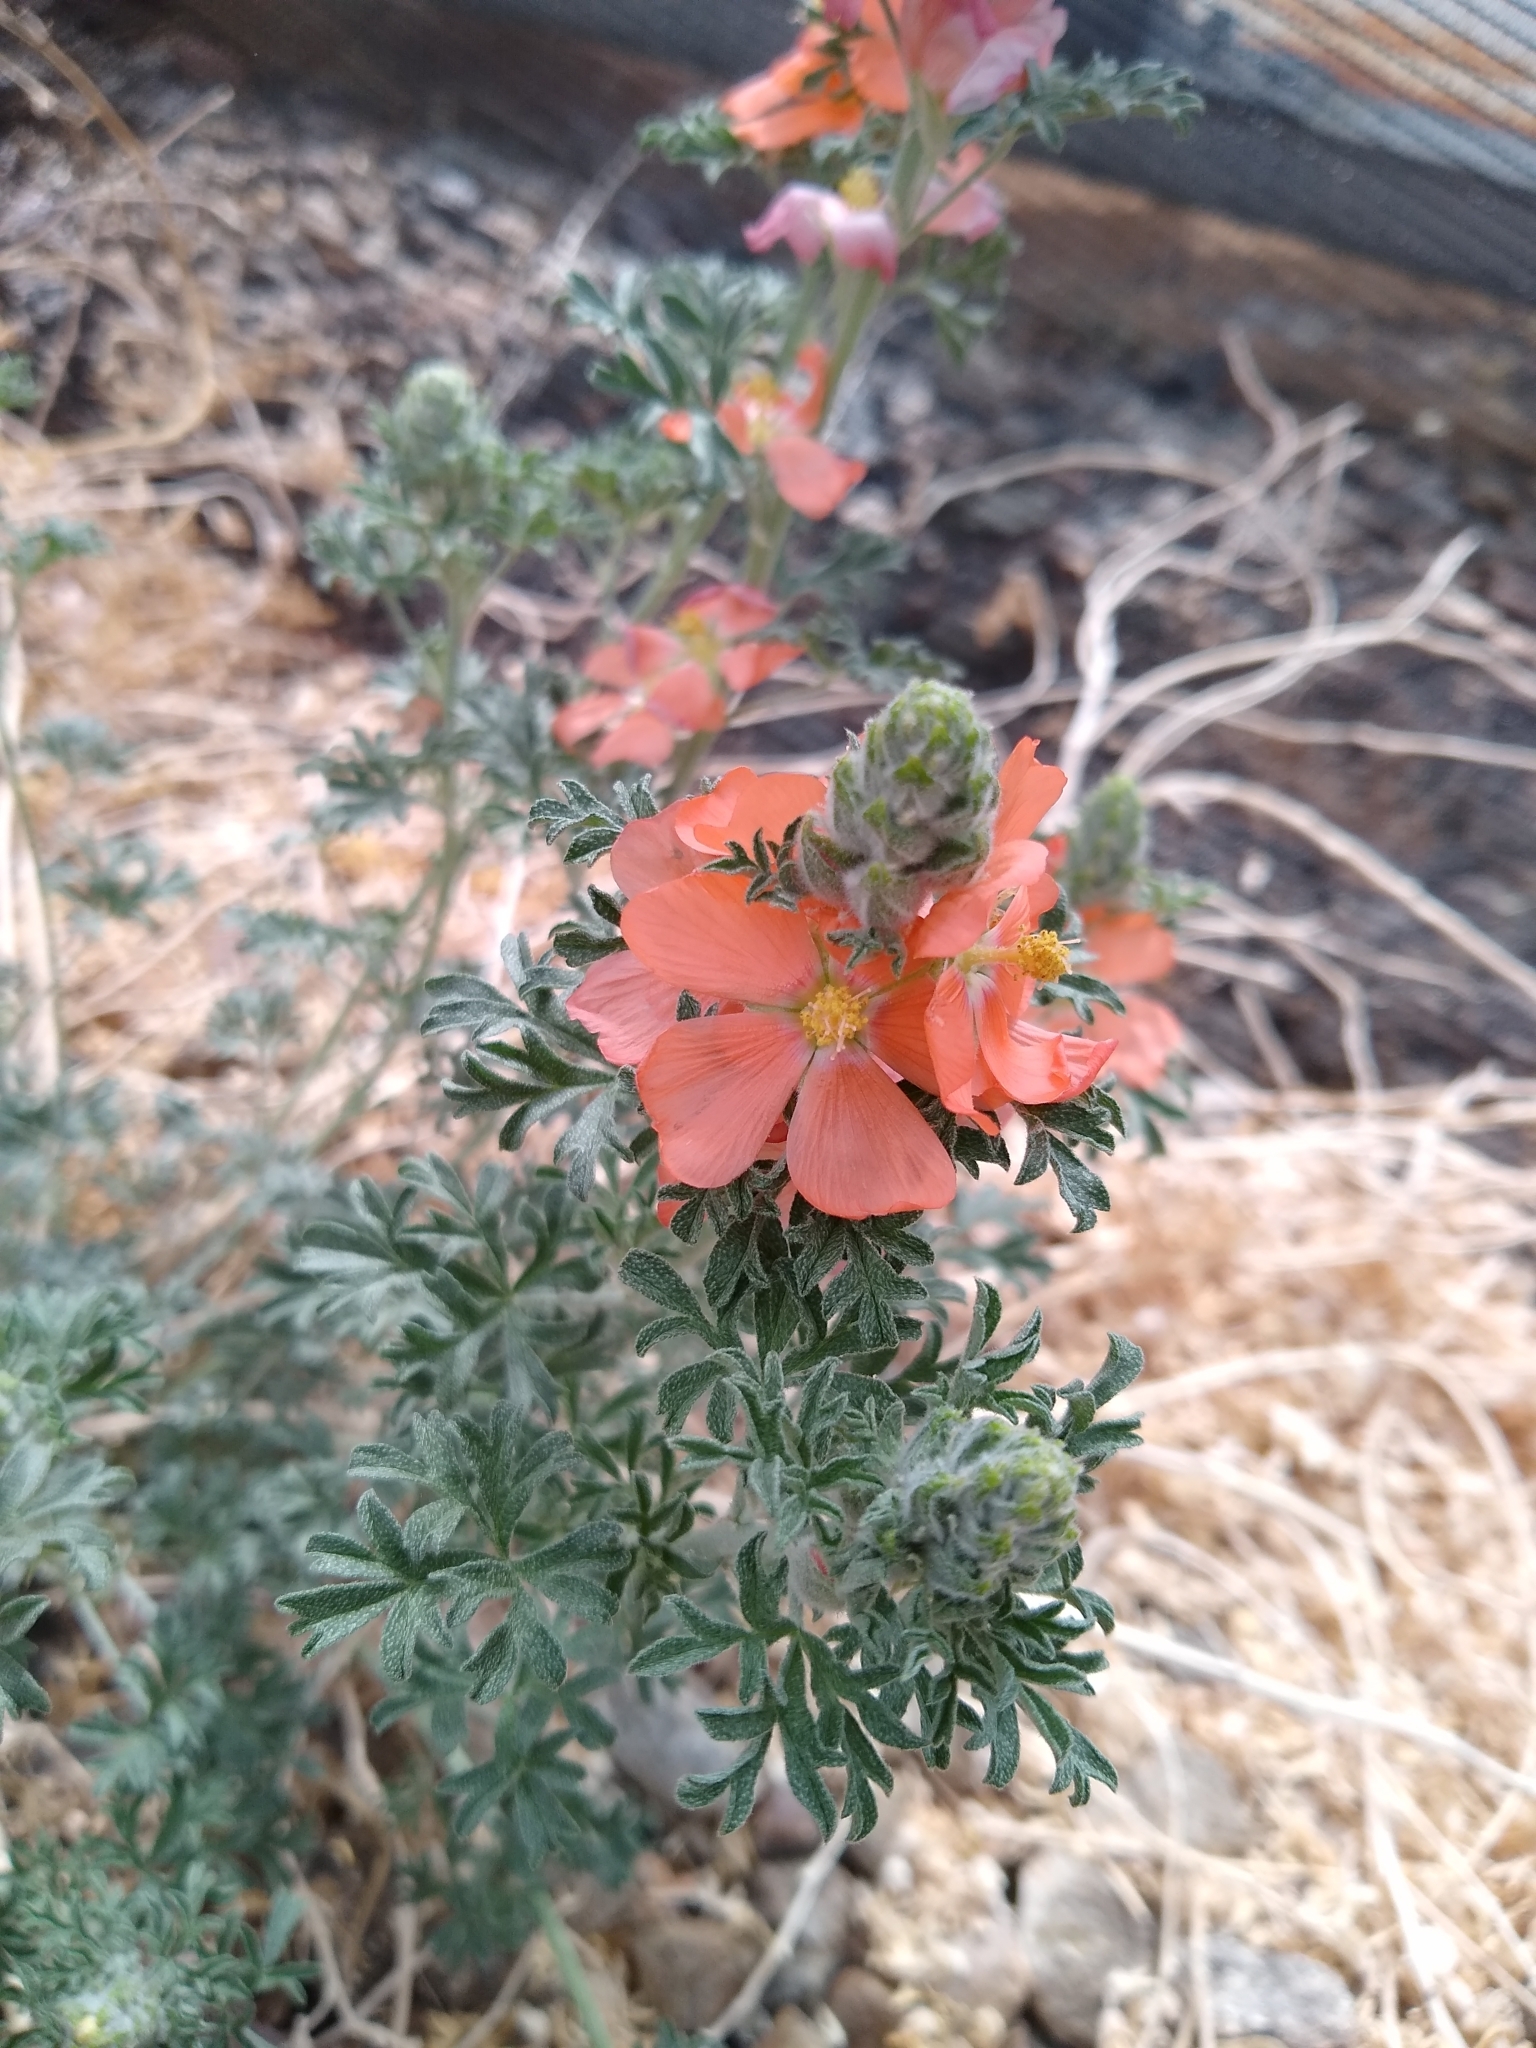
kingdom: Plantae
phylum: Tracheophyta
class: Magnoliopsida
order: Malvales
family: Malvaceae
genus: Sphaeralcea
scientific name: Sphaeralcea coccinea
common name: Moss-rose
